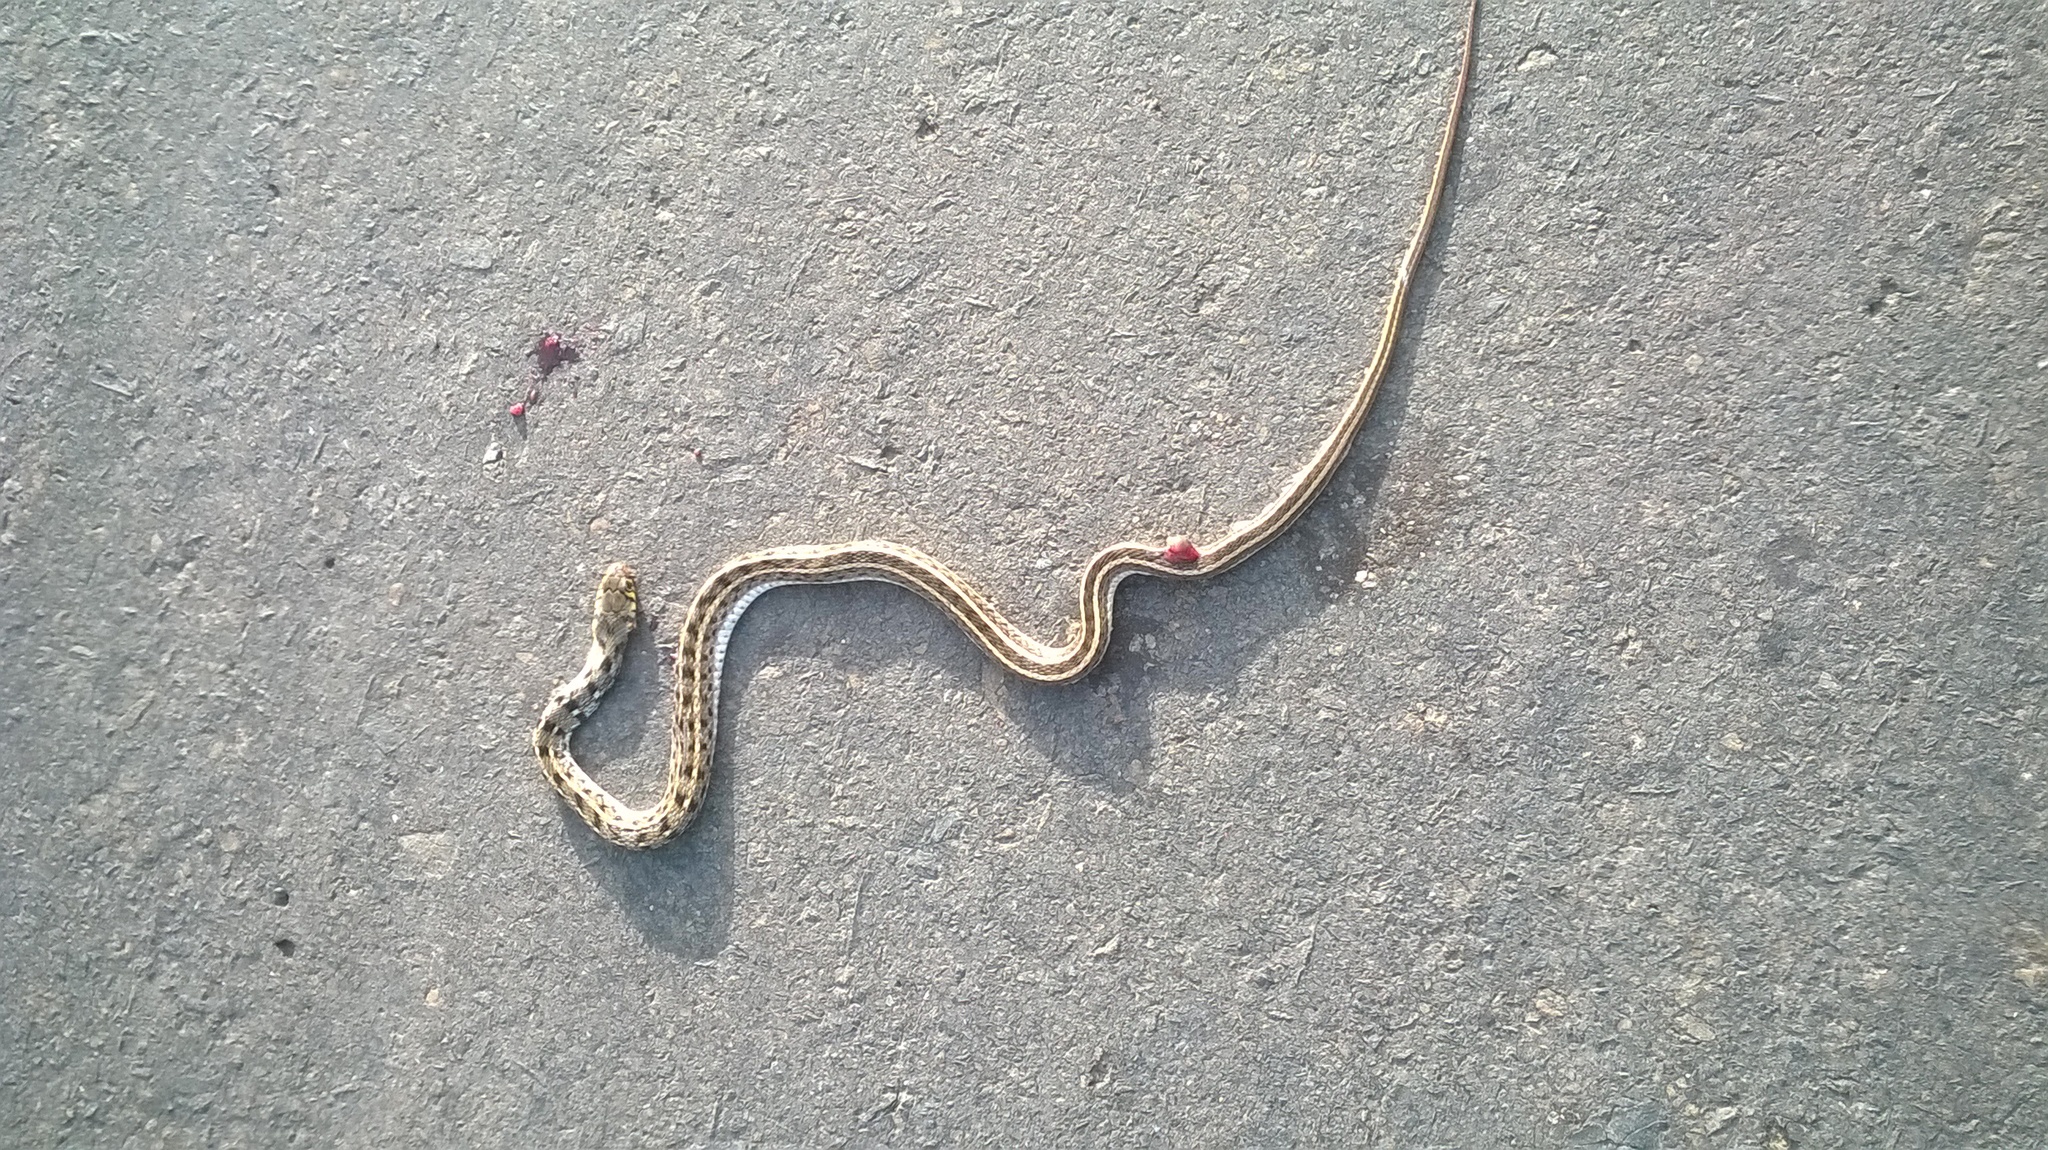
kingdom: Animalia
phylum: Chordata
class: Squamata
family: Colubridae
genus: Amphiesma
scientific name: Amphiesma stolatum
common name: Buff striped keelback
